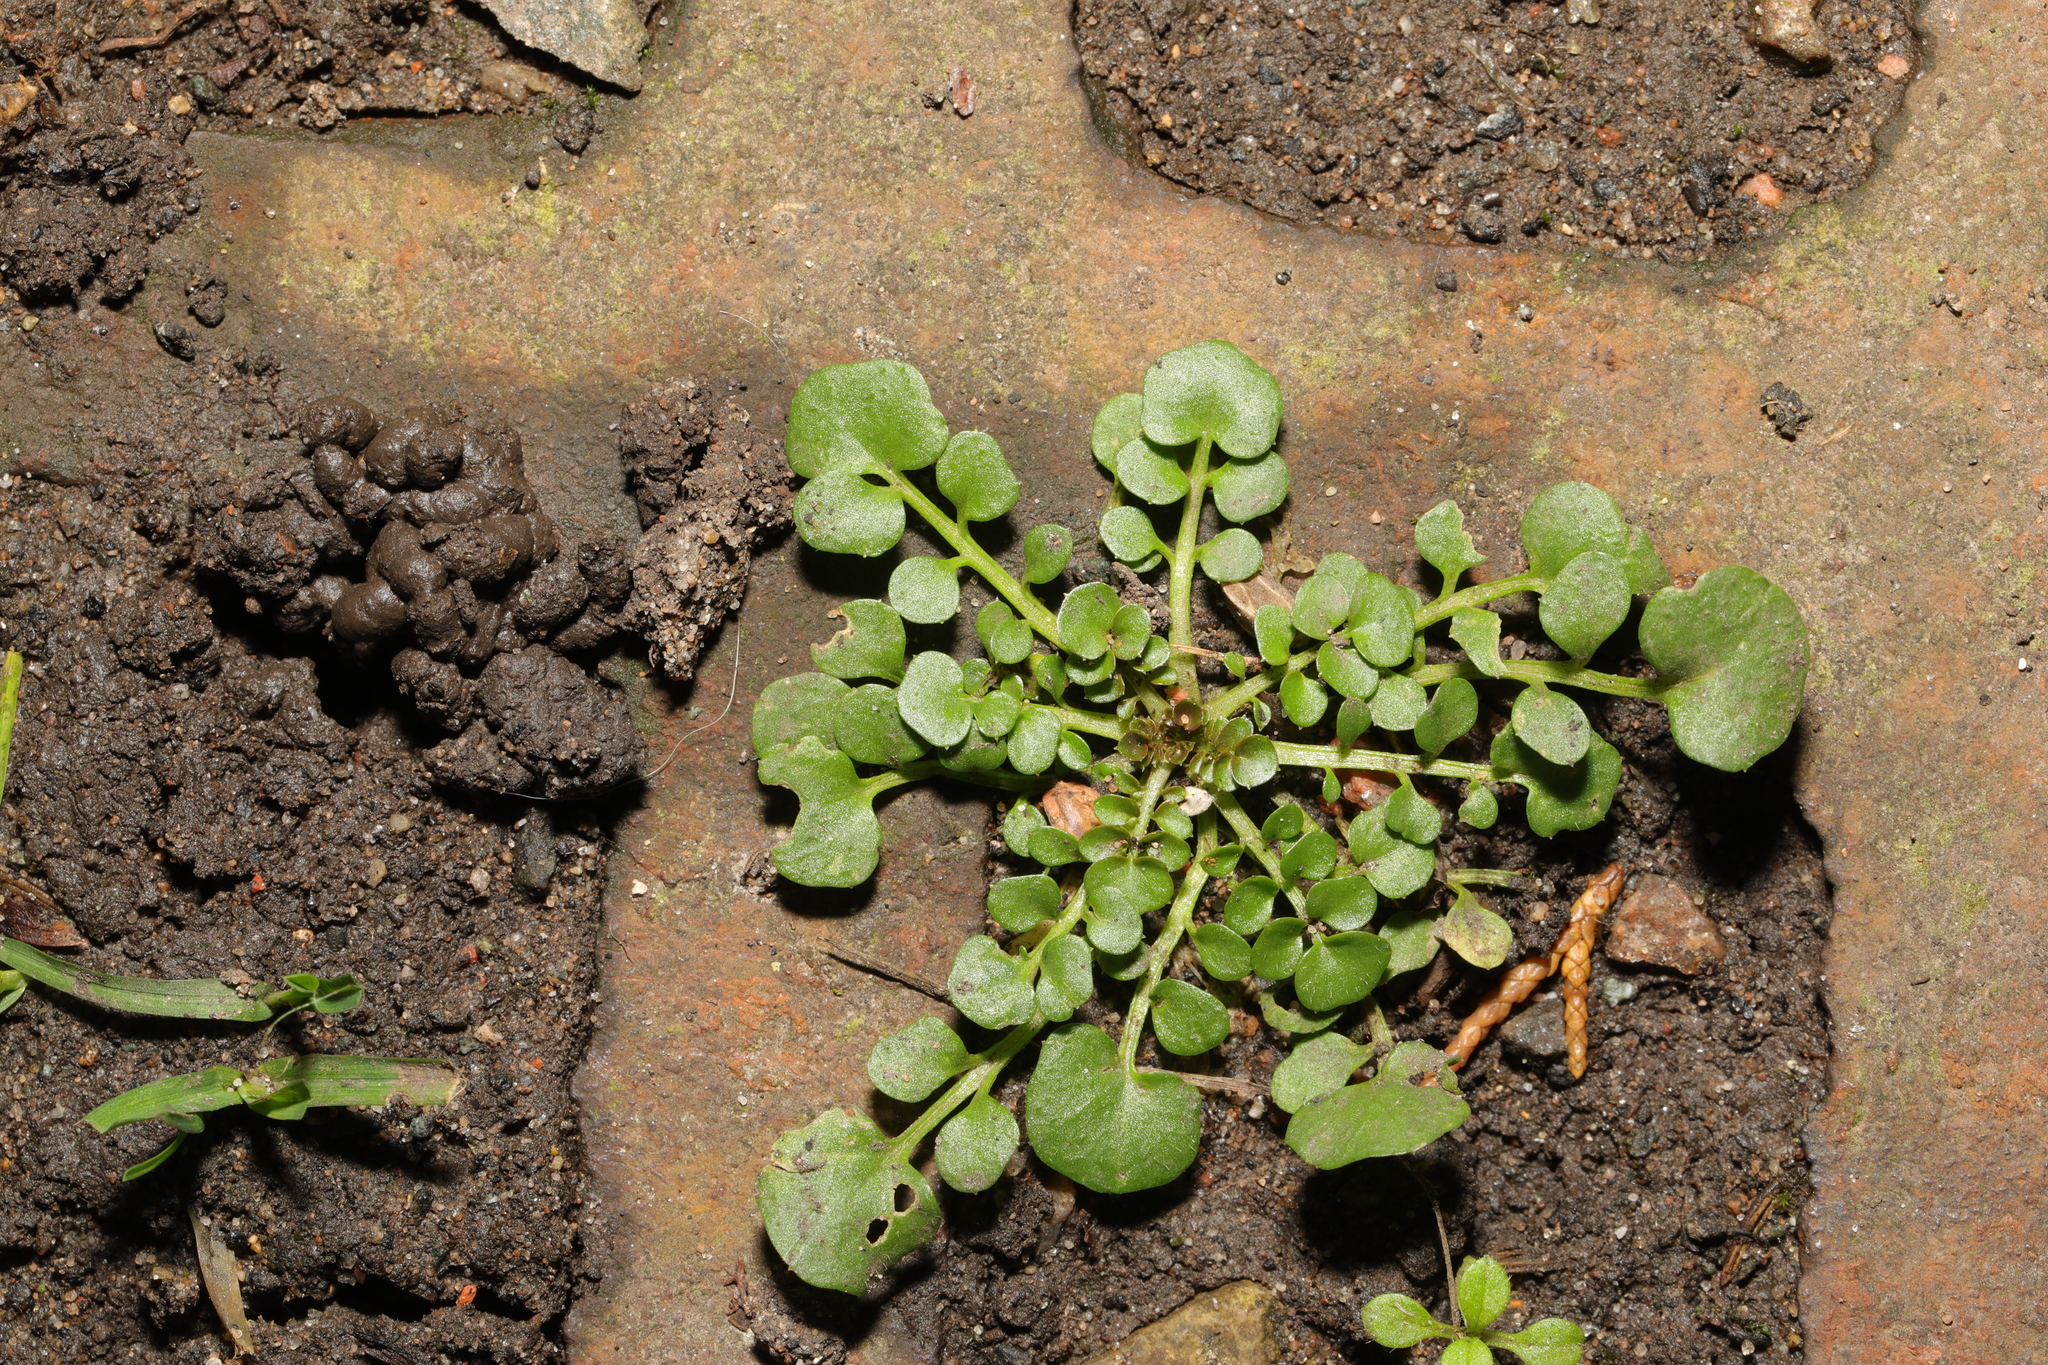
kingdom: Plantae
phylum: Tracheophyta
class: Magnoliopsida
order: Brassicales
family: Brassicaceae
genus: Cardamine
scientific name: Cardamine hirsuta
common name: Hairy bittercress
